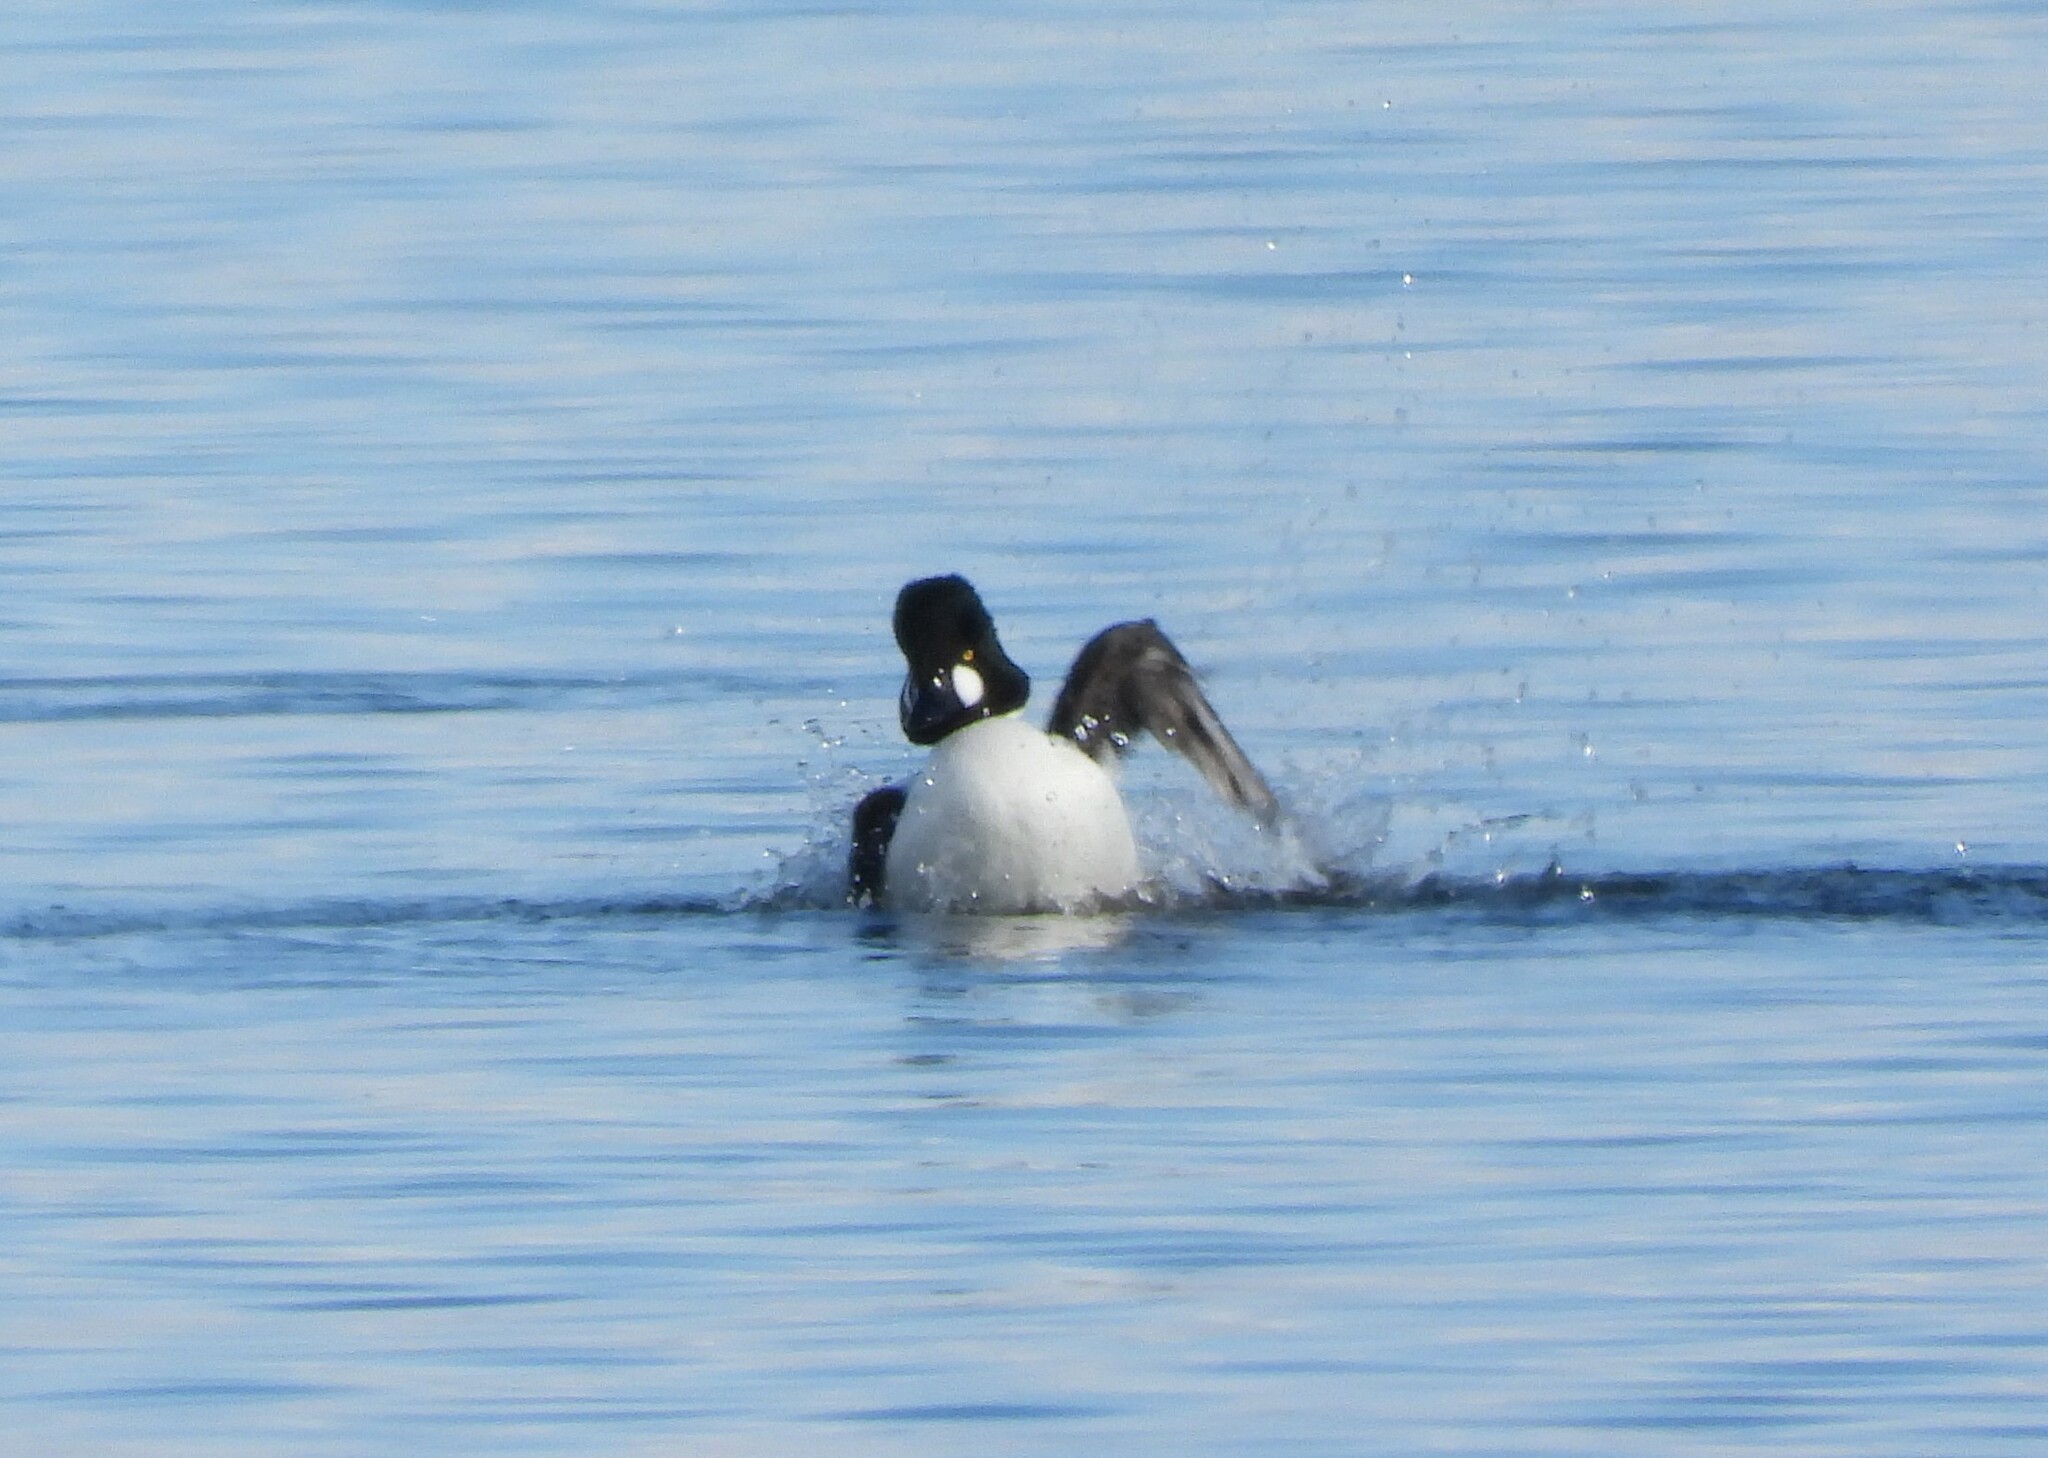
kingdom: Animalia
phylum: Chordata
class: Aves
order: Anseriformes
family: Anatidae
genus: Bucephala
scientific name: Bucephala clangula
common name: Common goldeneye
